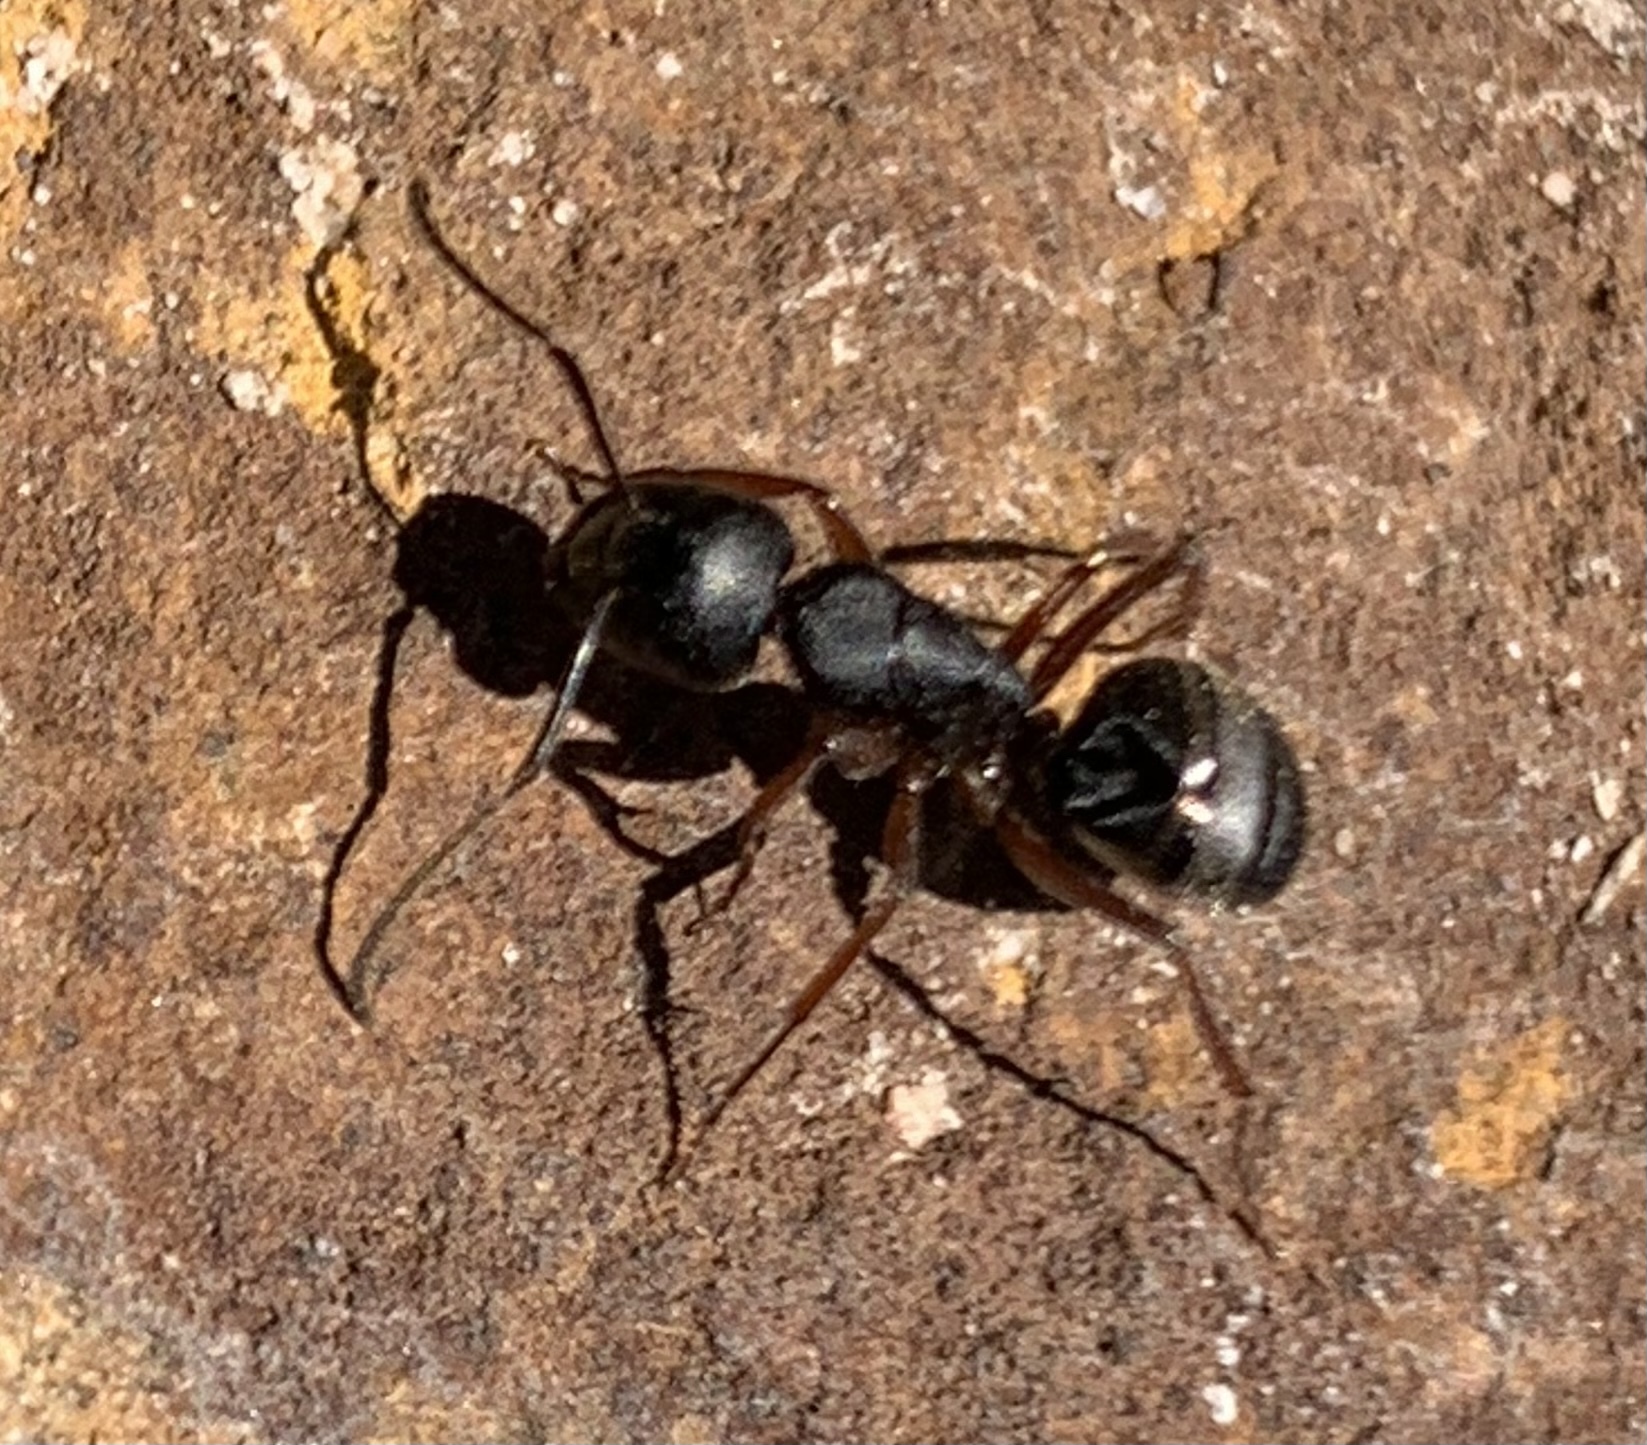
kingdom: Animalia
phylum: Arthropoda
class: Insecta
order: Hymenoptera
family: Formicidae
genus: Camponotus
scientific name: Camponotus modoc
